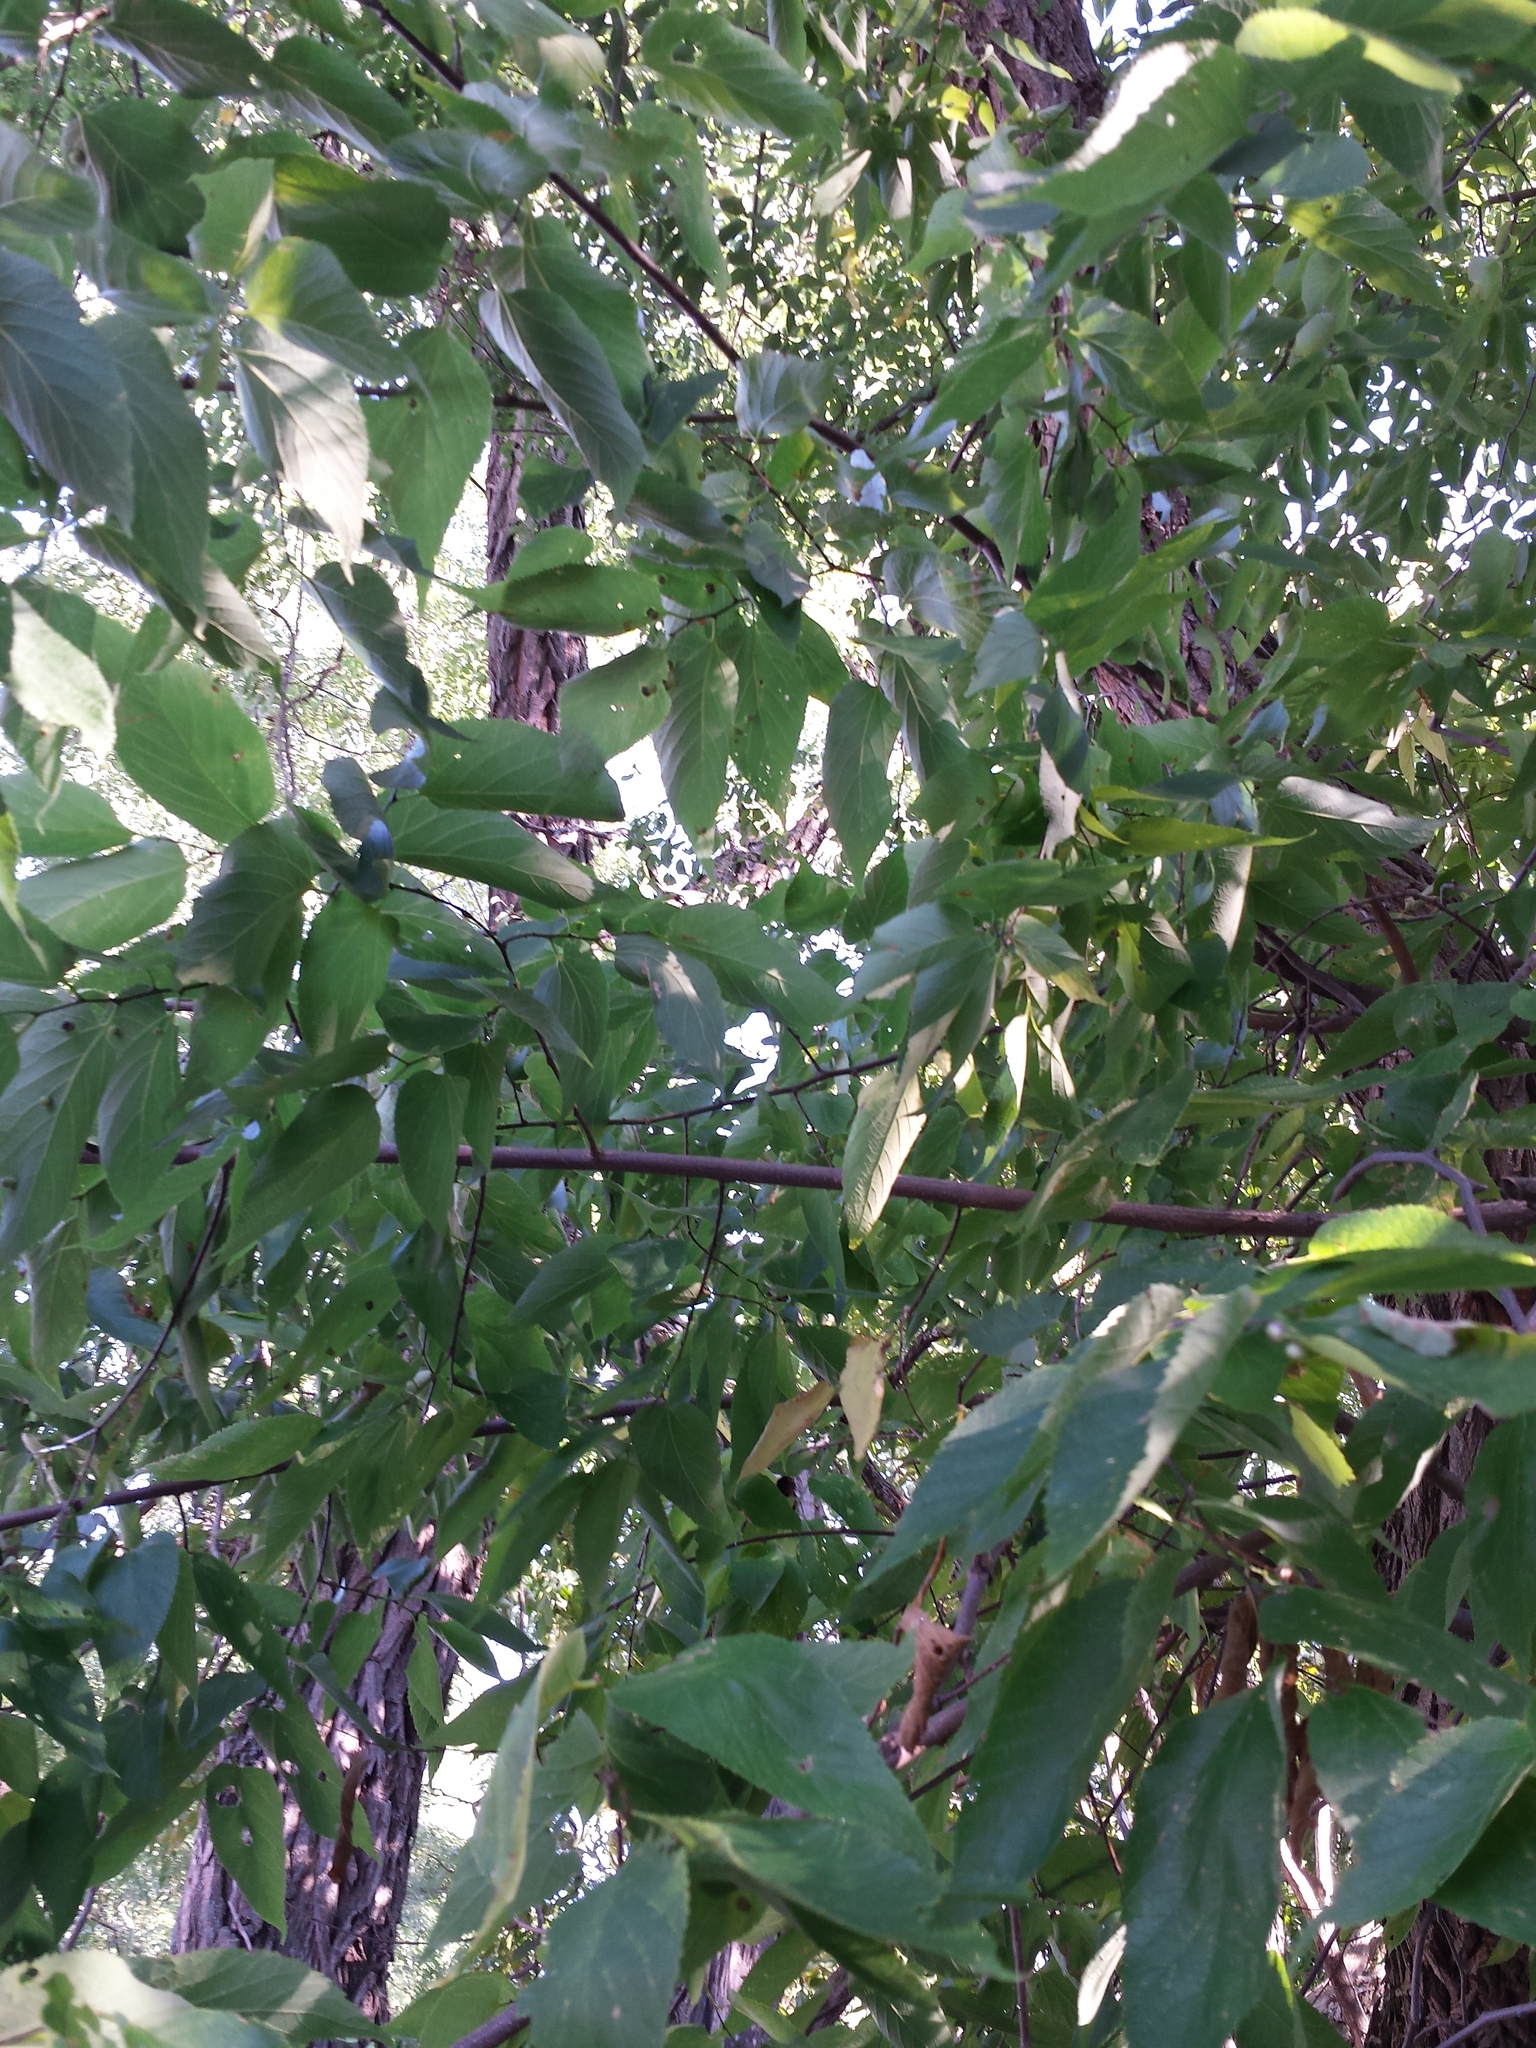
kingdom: Plantae
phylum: Tracheophyta
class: Magnoliopsida
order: Rosales
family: Cannabaceae
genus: Celtis
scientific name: Celtis occidentalis
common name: Common hackberry
